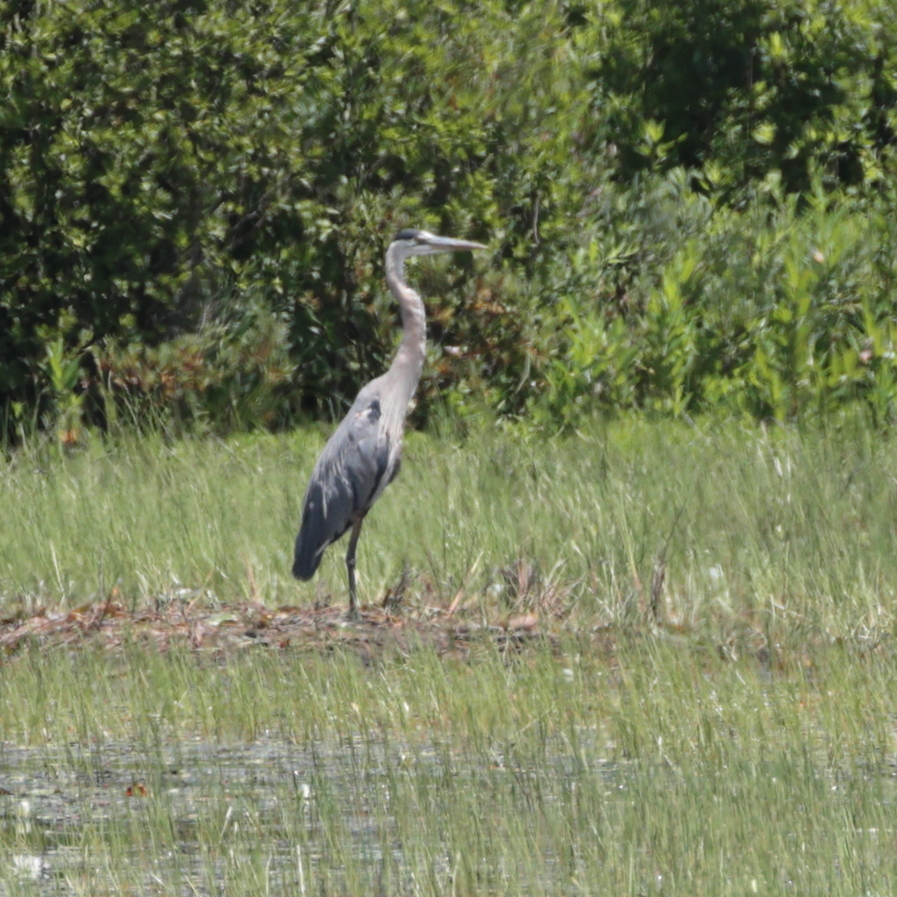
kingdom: Animalia
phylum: Chordata
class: Aves
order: Pelecaniformes
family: Ardeidae
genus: Ardea
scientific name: Ardea herodias
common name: Great blue heron
